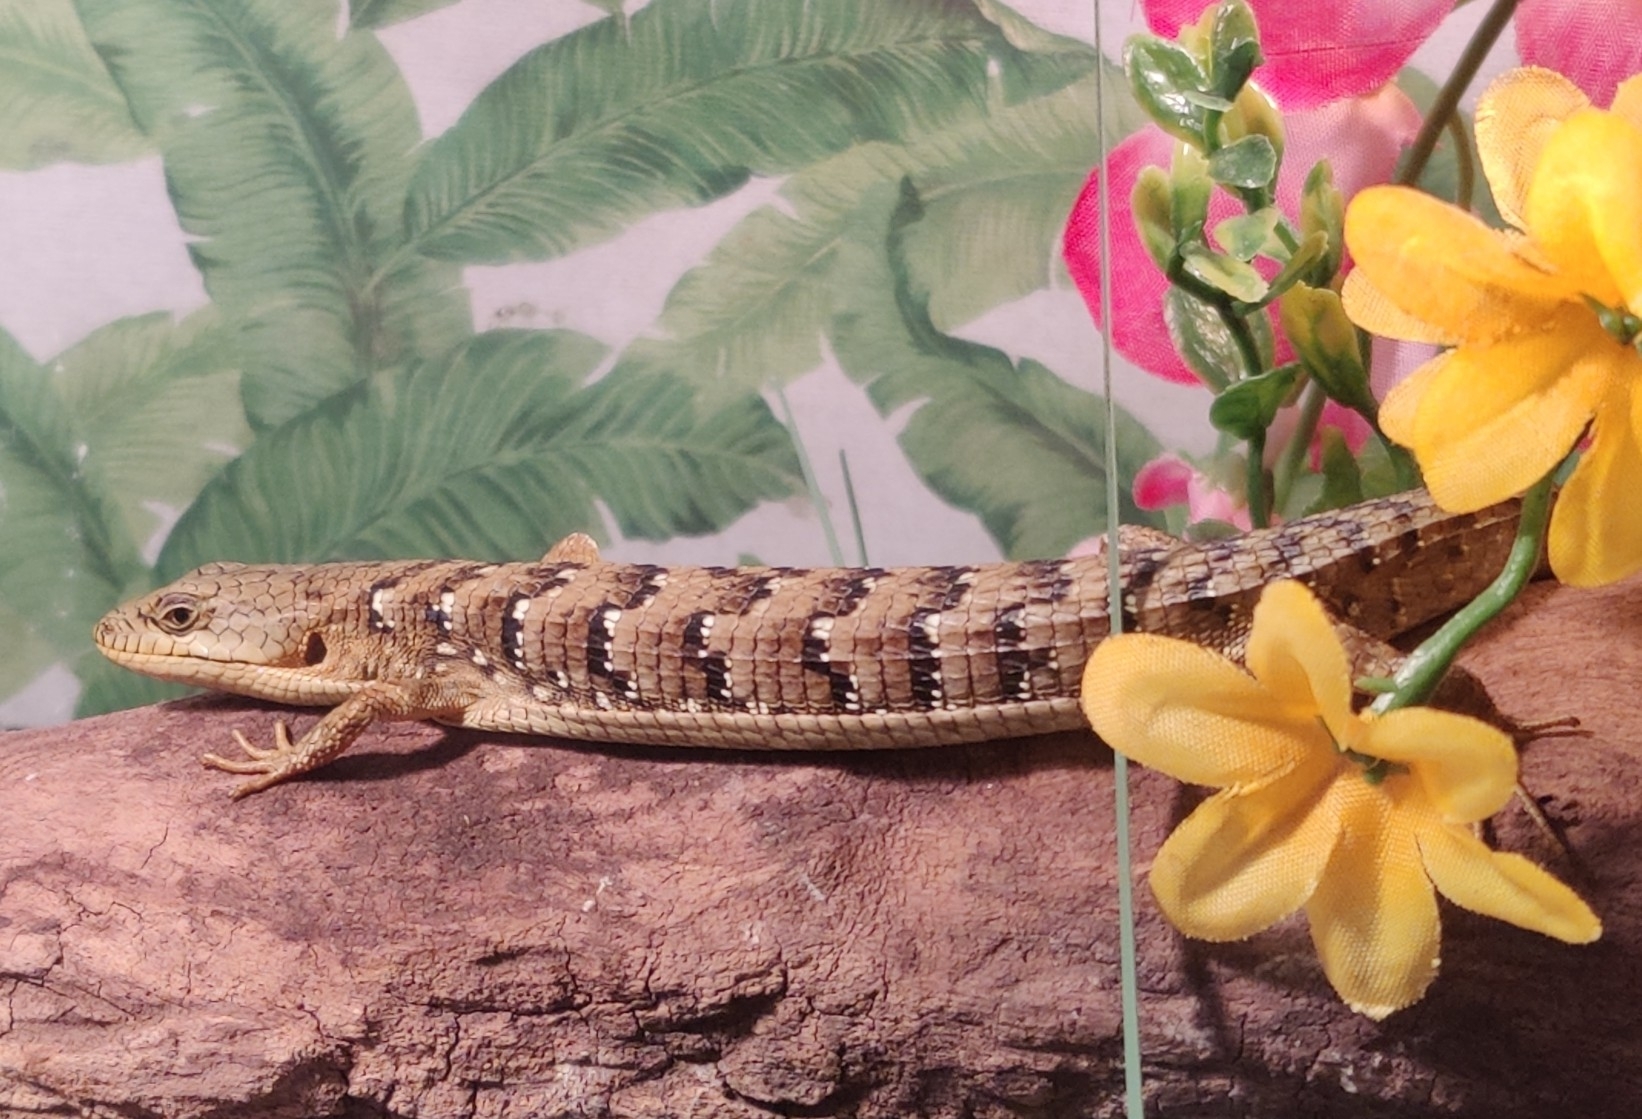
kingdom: Animalia
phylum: Chordata
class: Squamata
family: Anguidae
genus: Elgaria
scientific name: Elgaria multicarinata
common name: Southern alligator lizard
